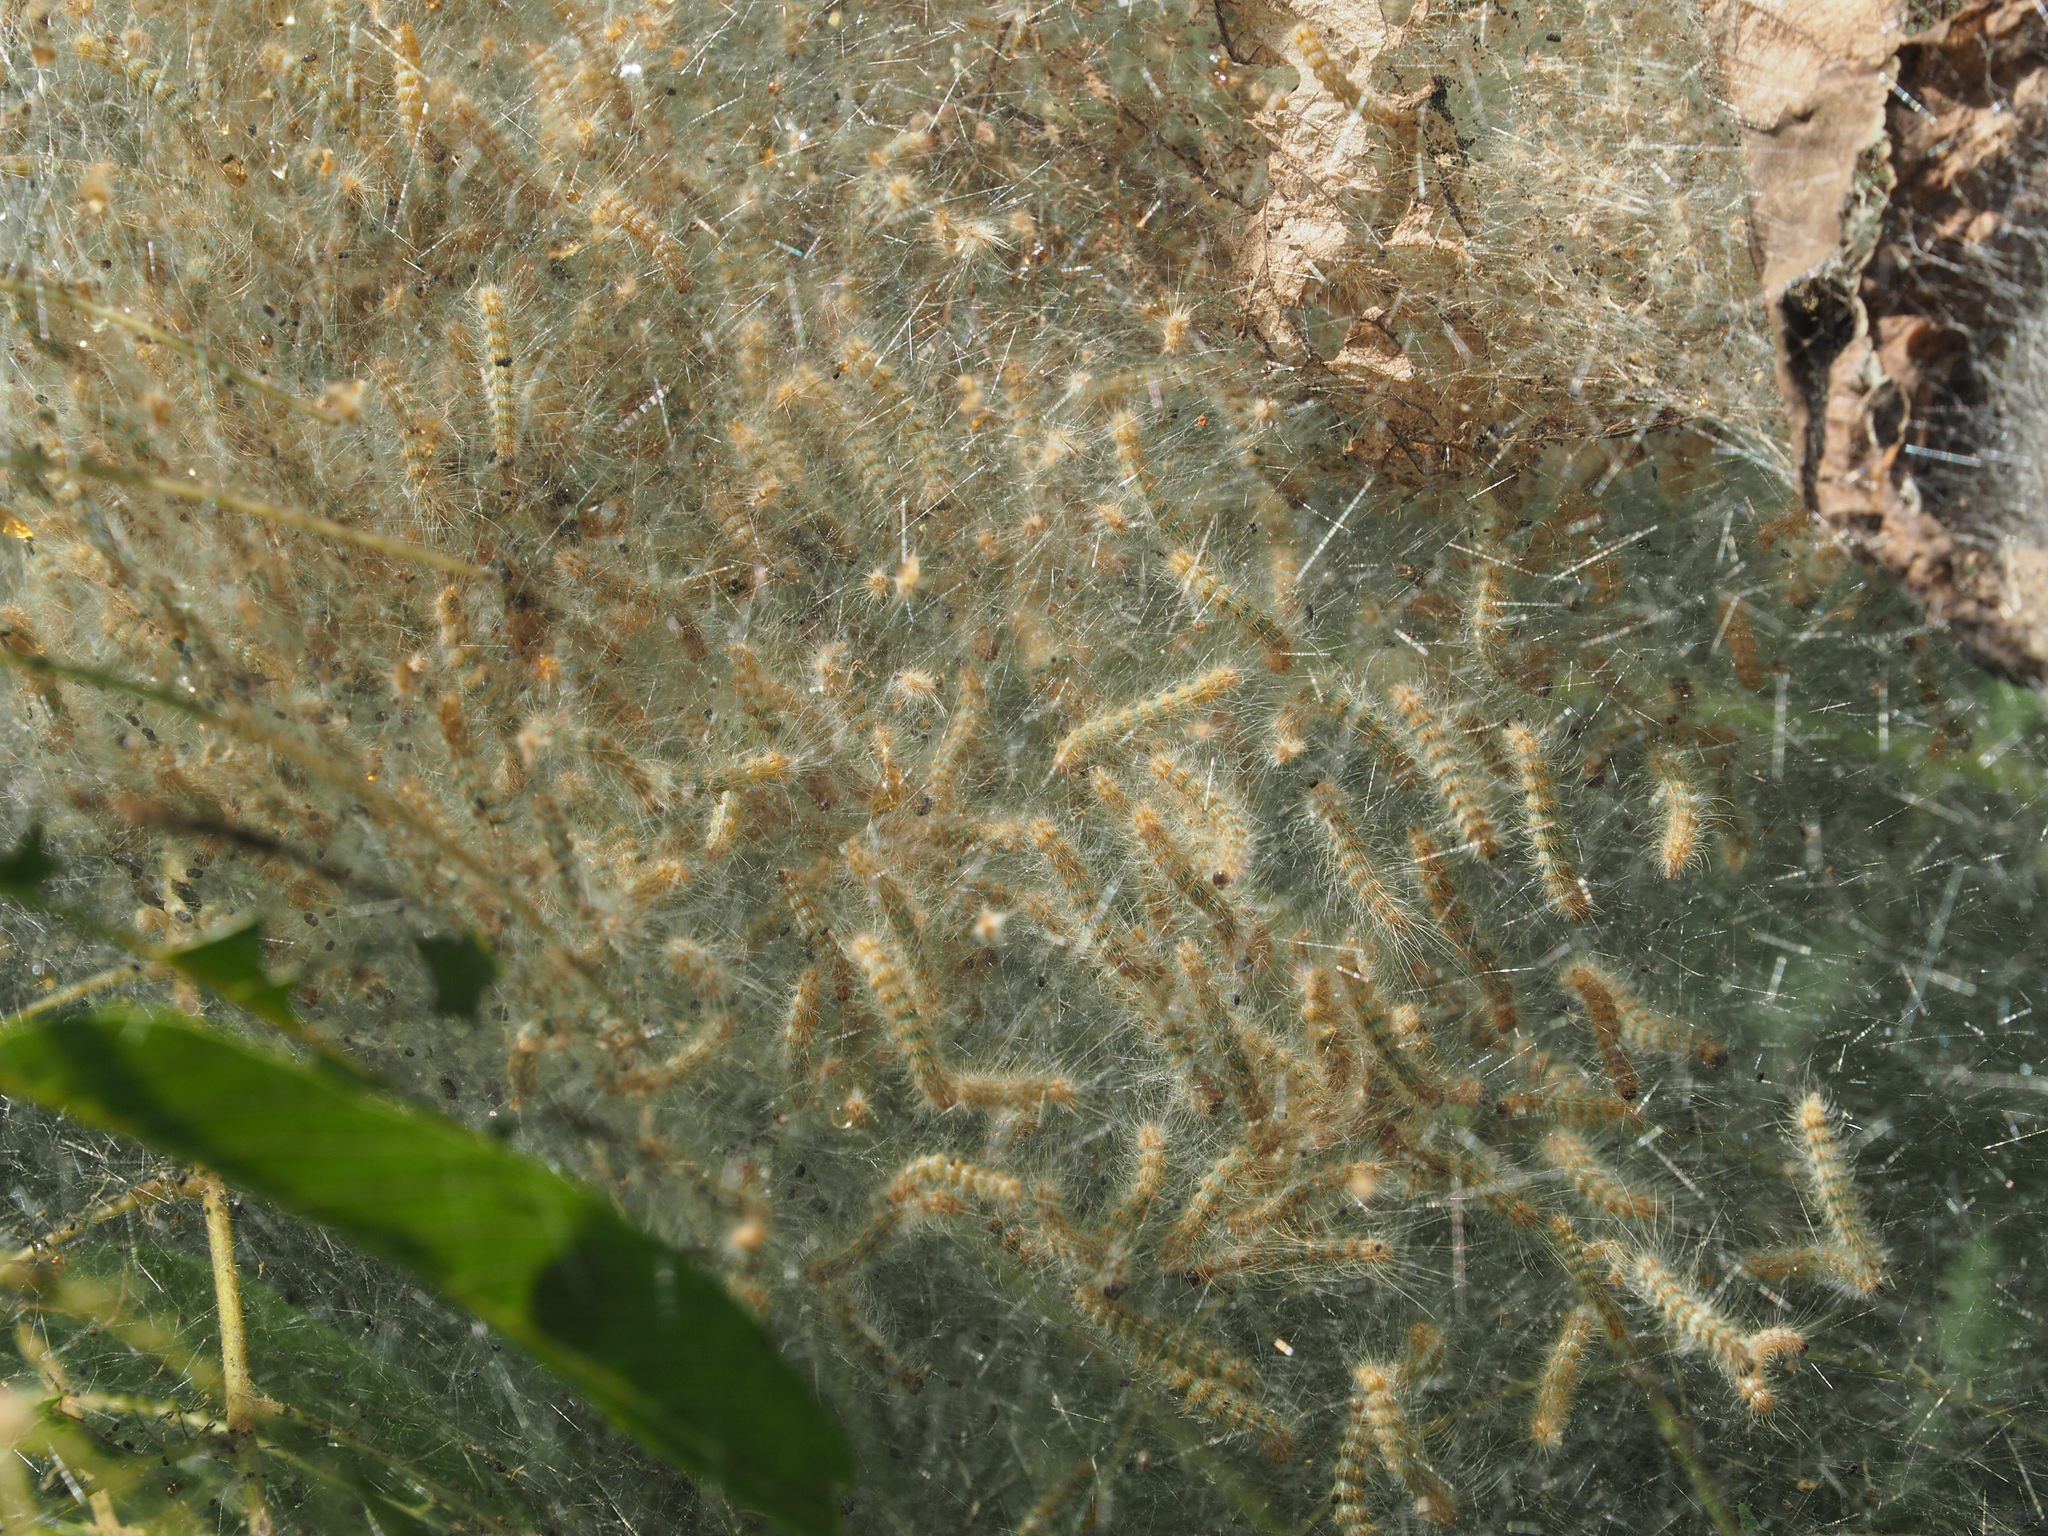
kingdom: Animalia
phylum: Arthropoda
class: Insecta
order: Lepidoptera
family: Erebidae
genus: Hyphantria
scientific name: Hyphantria cunea
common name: American white moth
